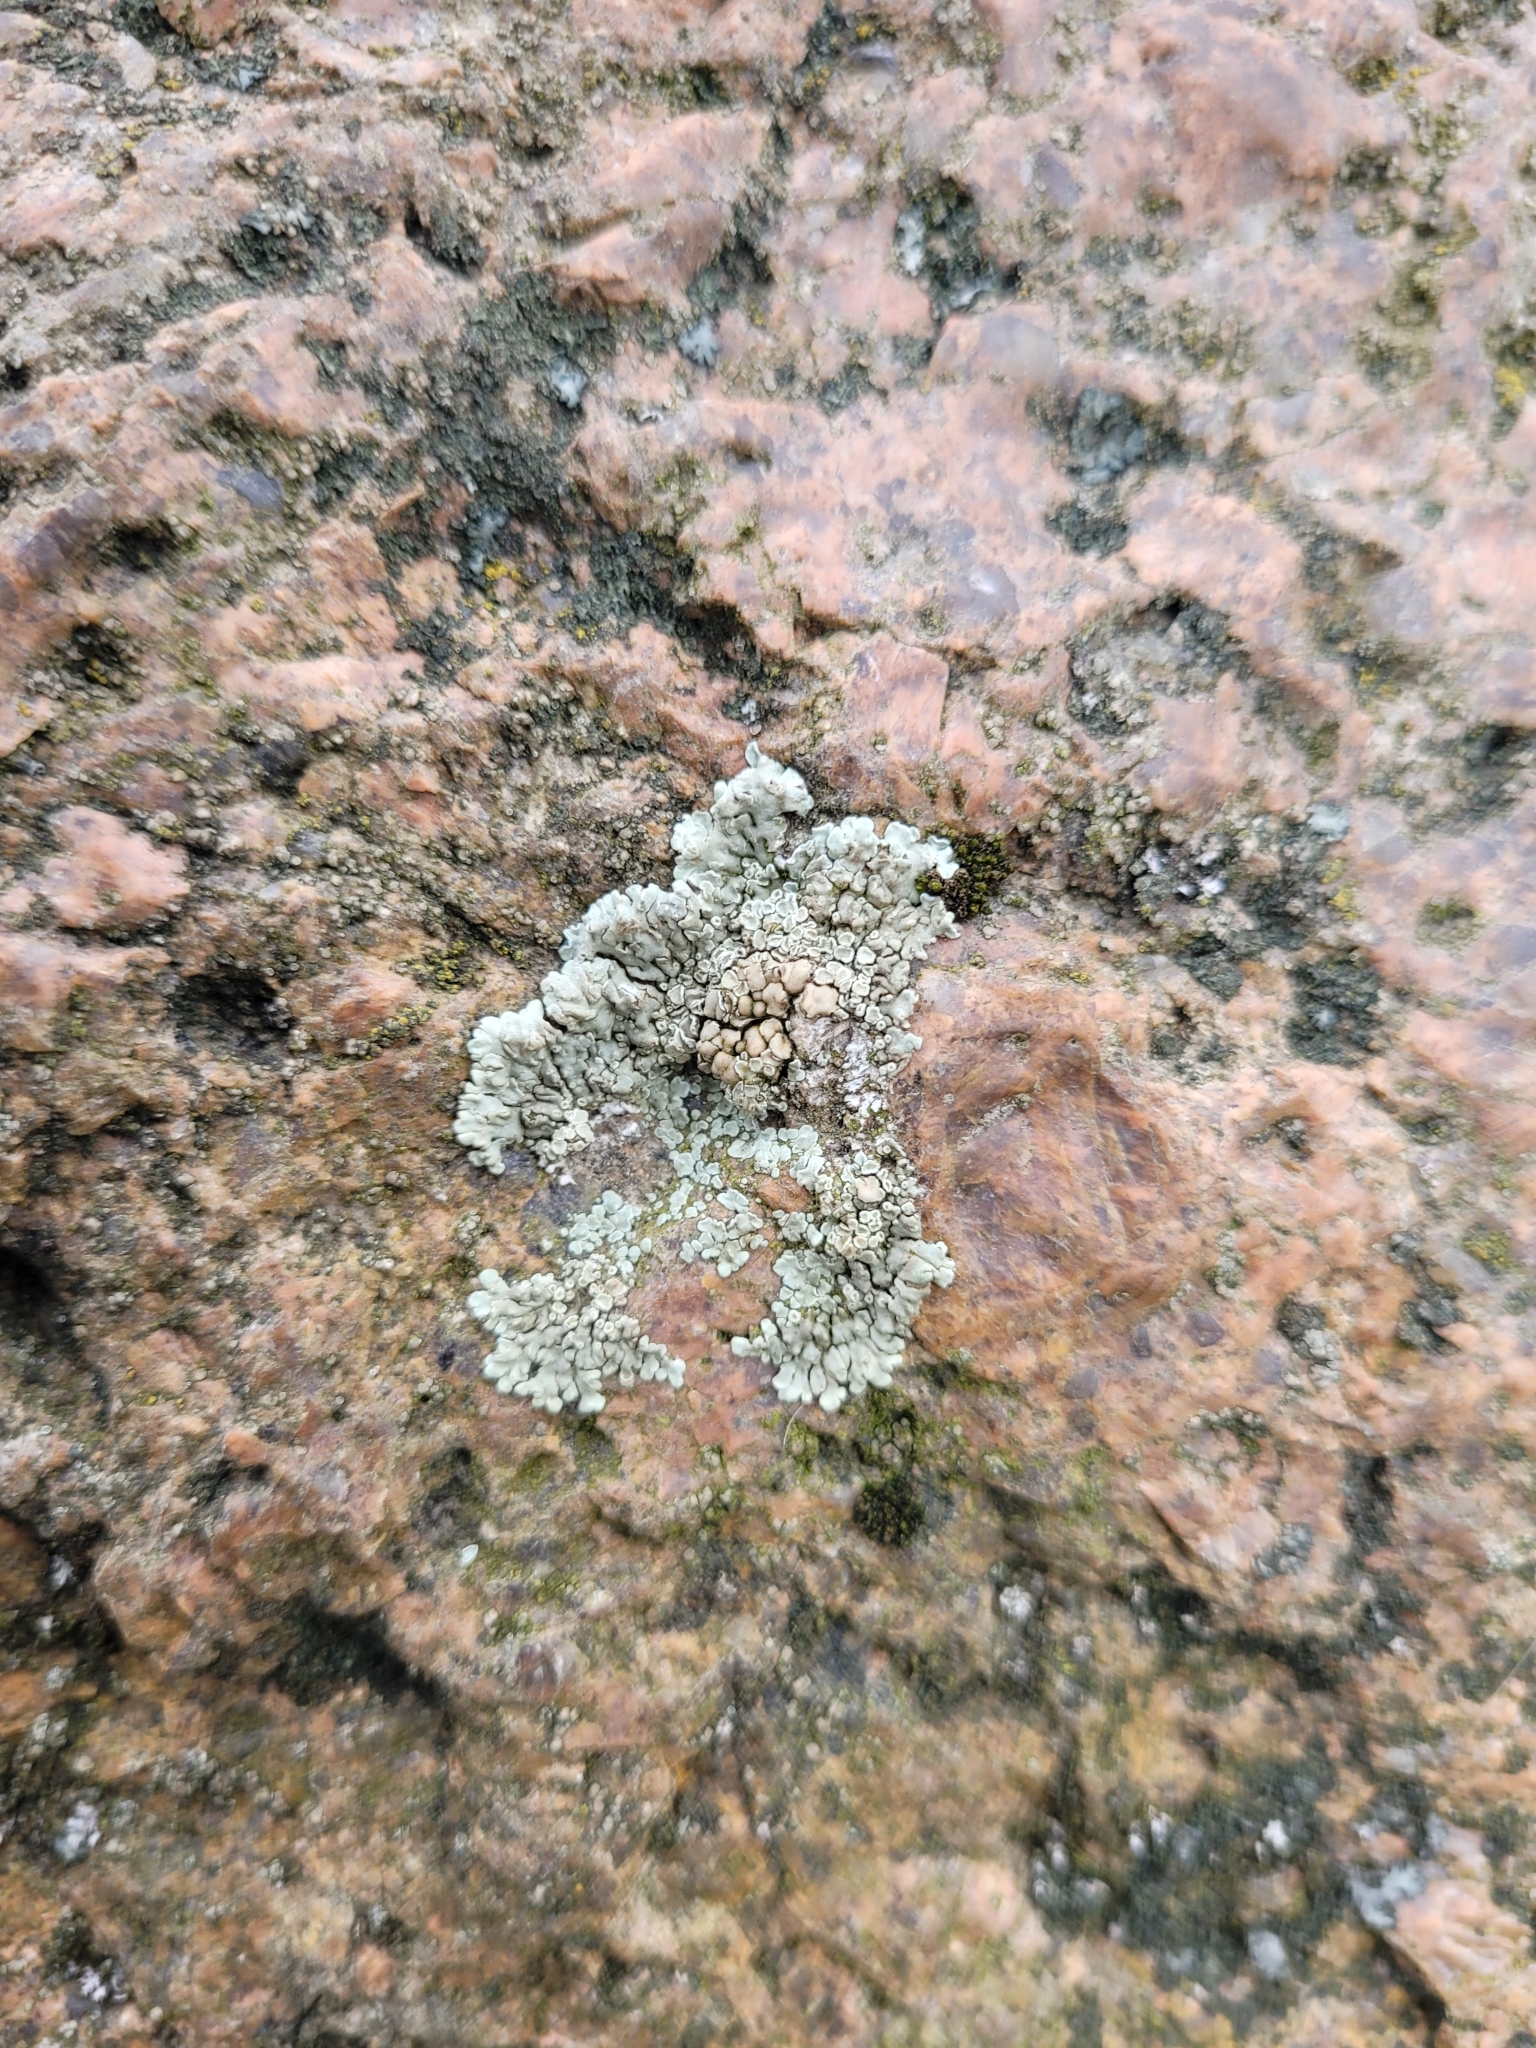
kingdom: Fungi
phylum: Ascomycota
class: Lecanoromycetes
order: Lecanorales
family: Lecanoraceae
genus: Protoparmeliopsis
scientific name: Protoparmeliopsis muralis
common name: Stonewall rim lichen
